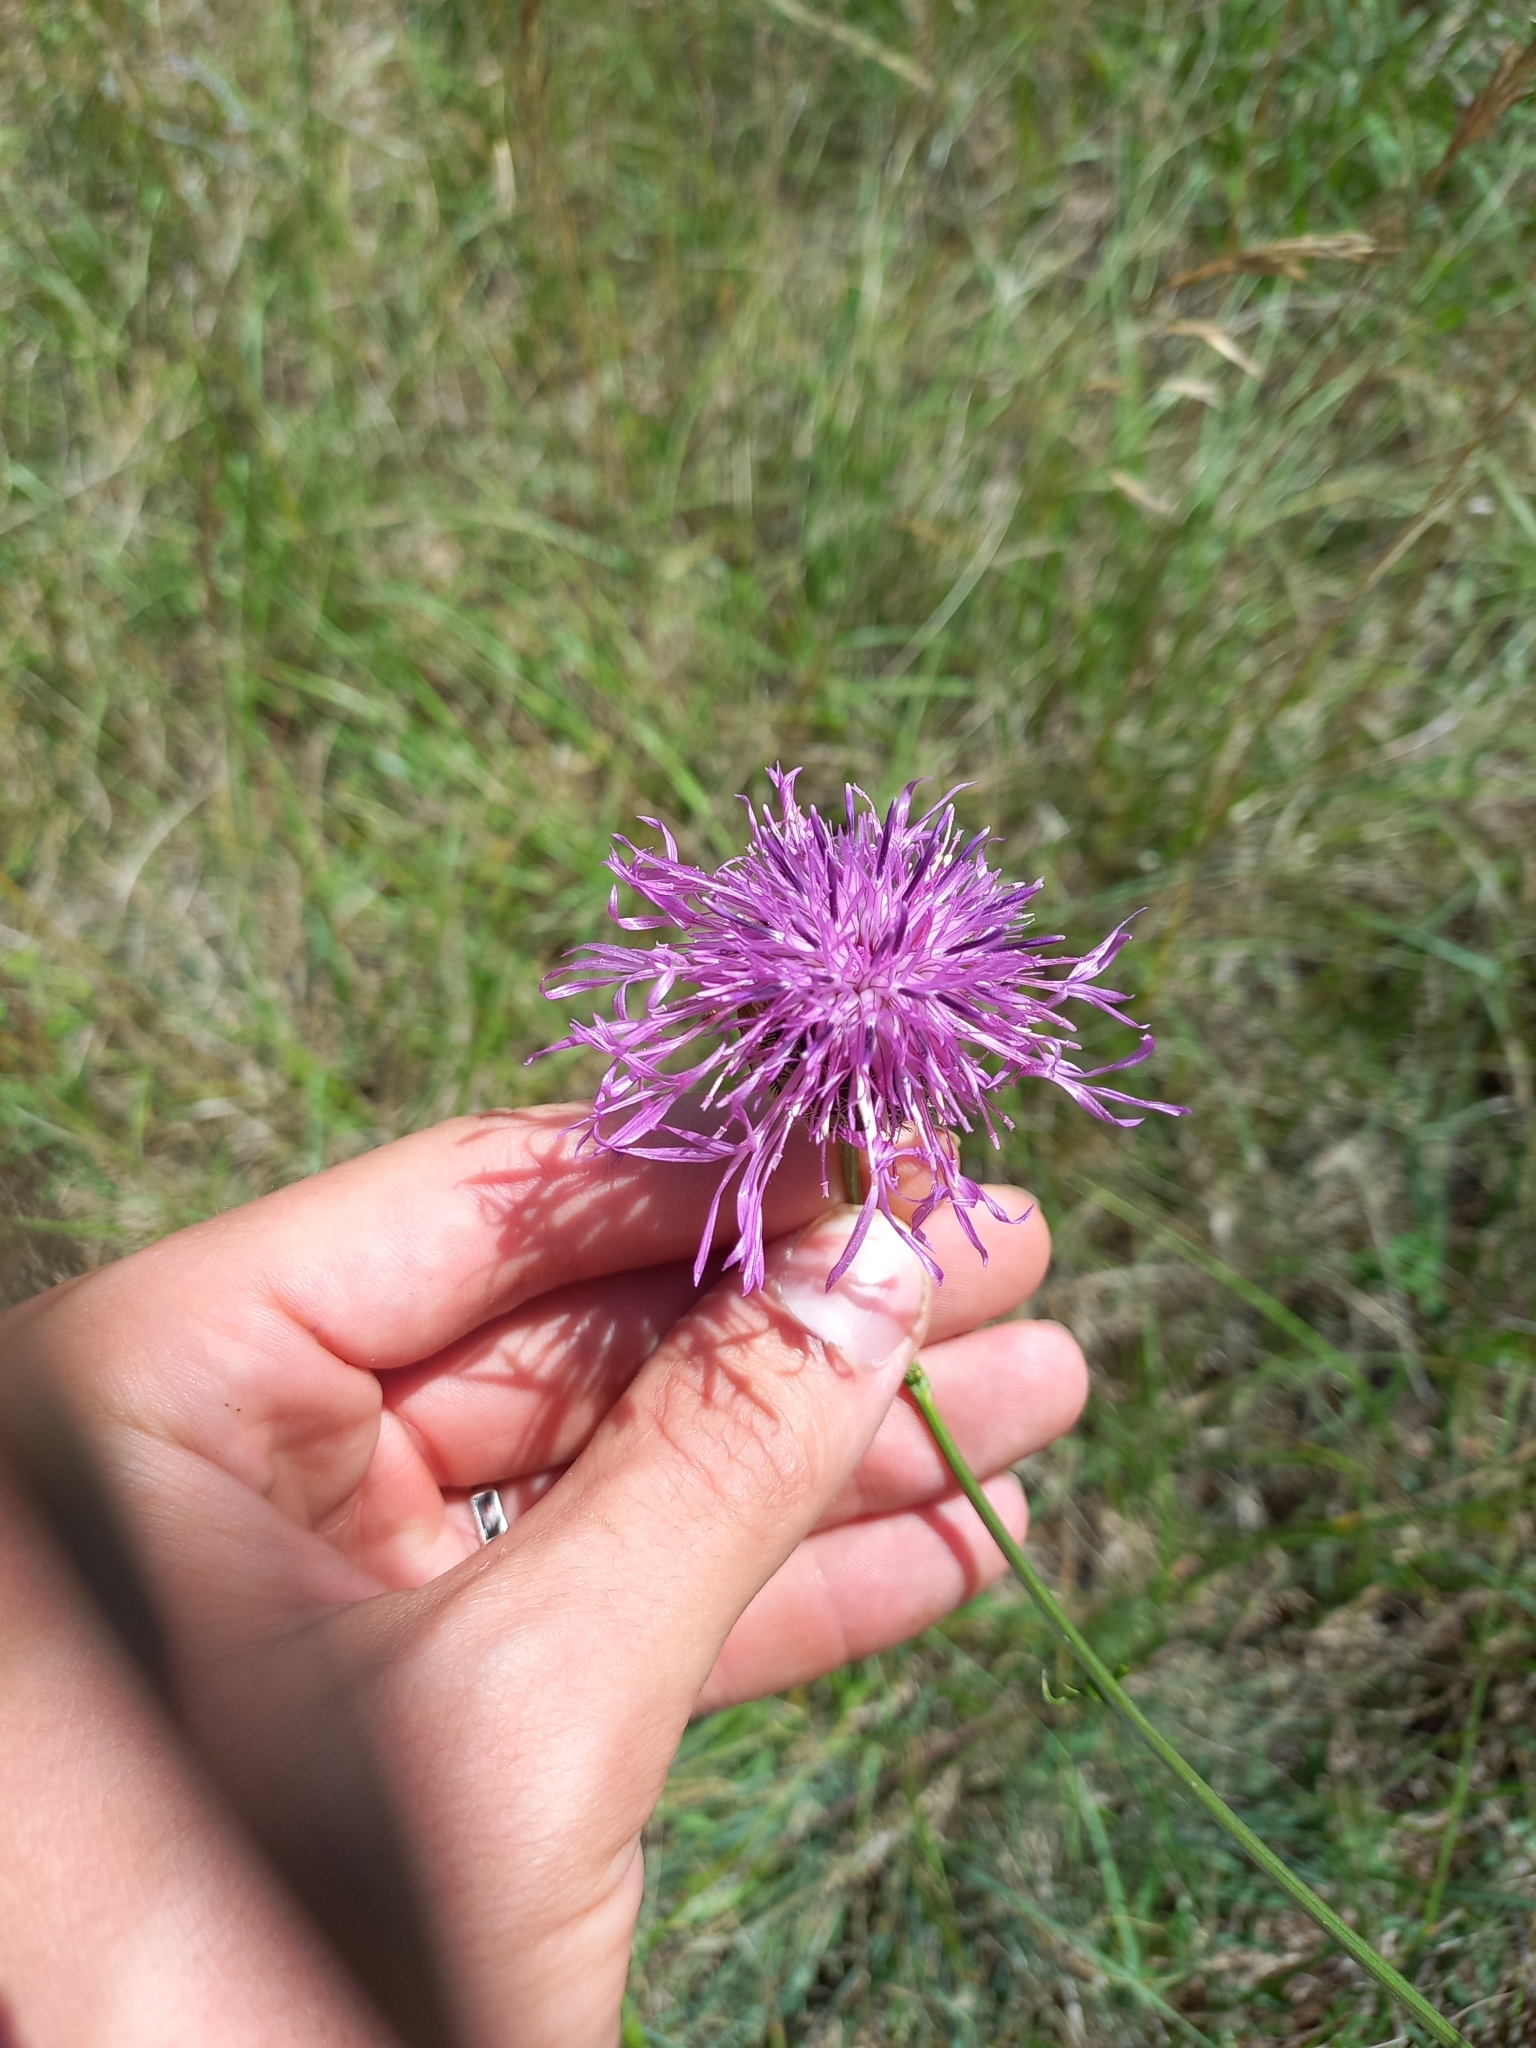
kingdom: Plantae
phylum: Tracheophyta
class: Magnoliopsida
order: Asterales
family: Asteraceae
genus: Centaurea
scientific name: Centaurea scabiosa
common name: Greater knapweed
